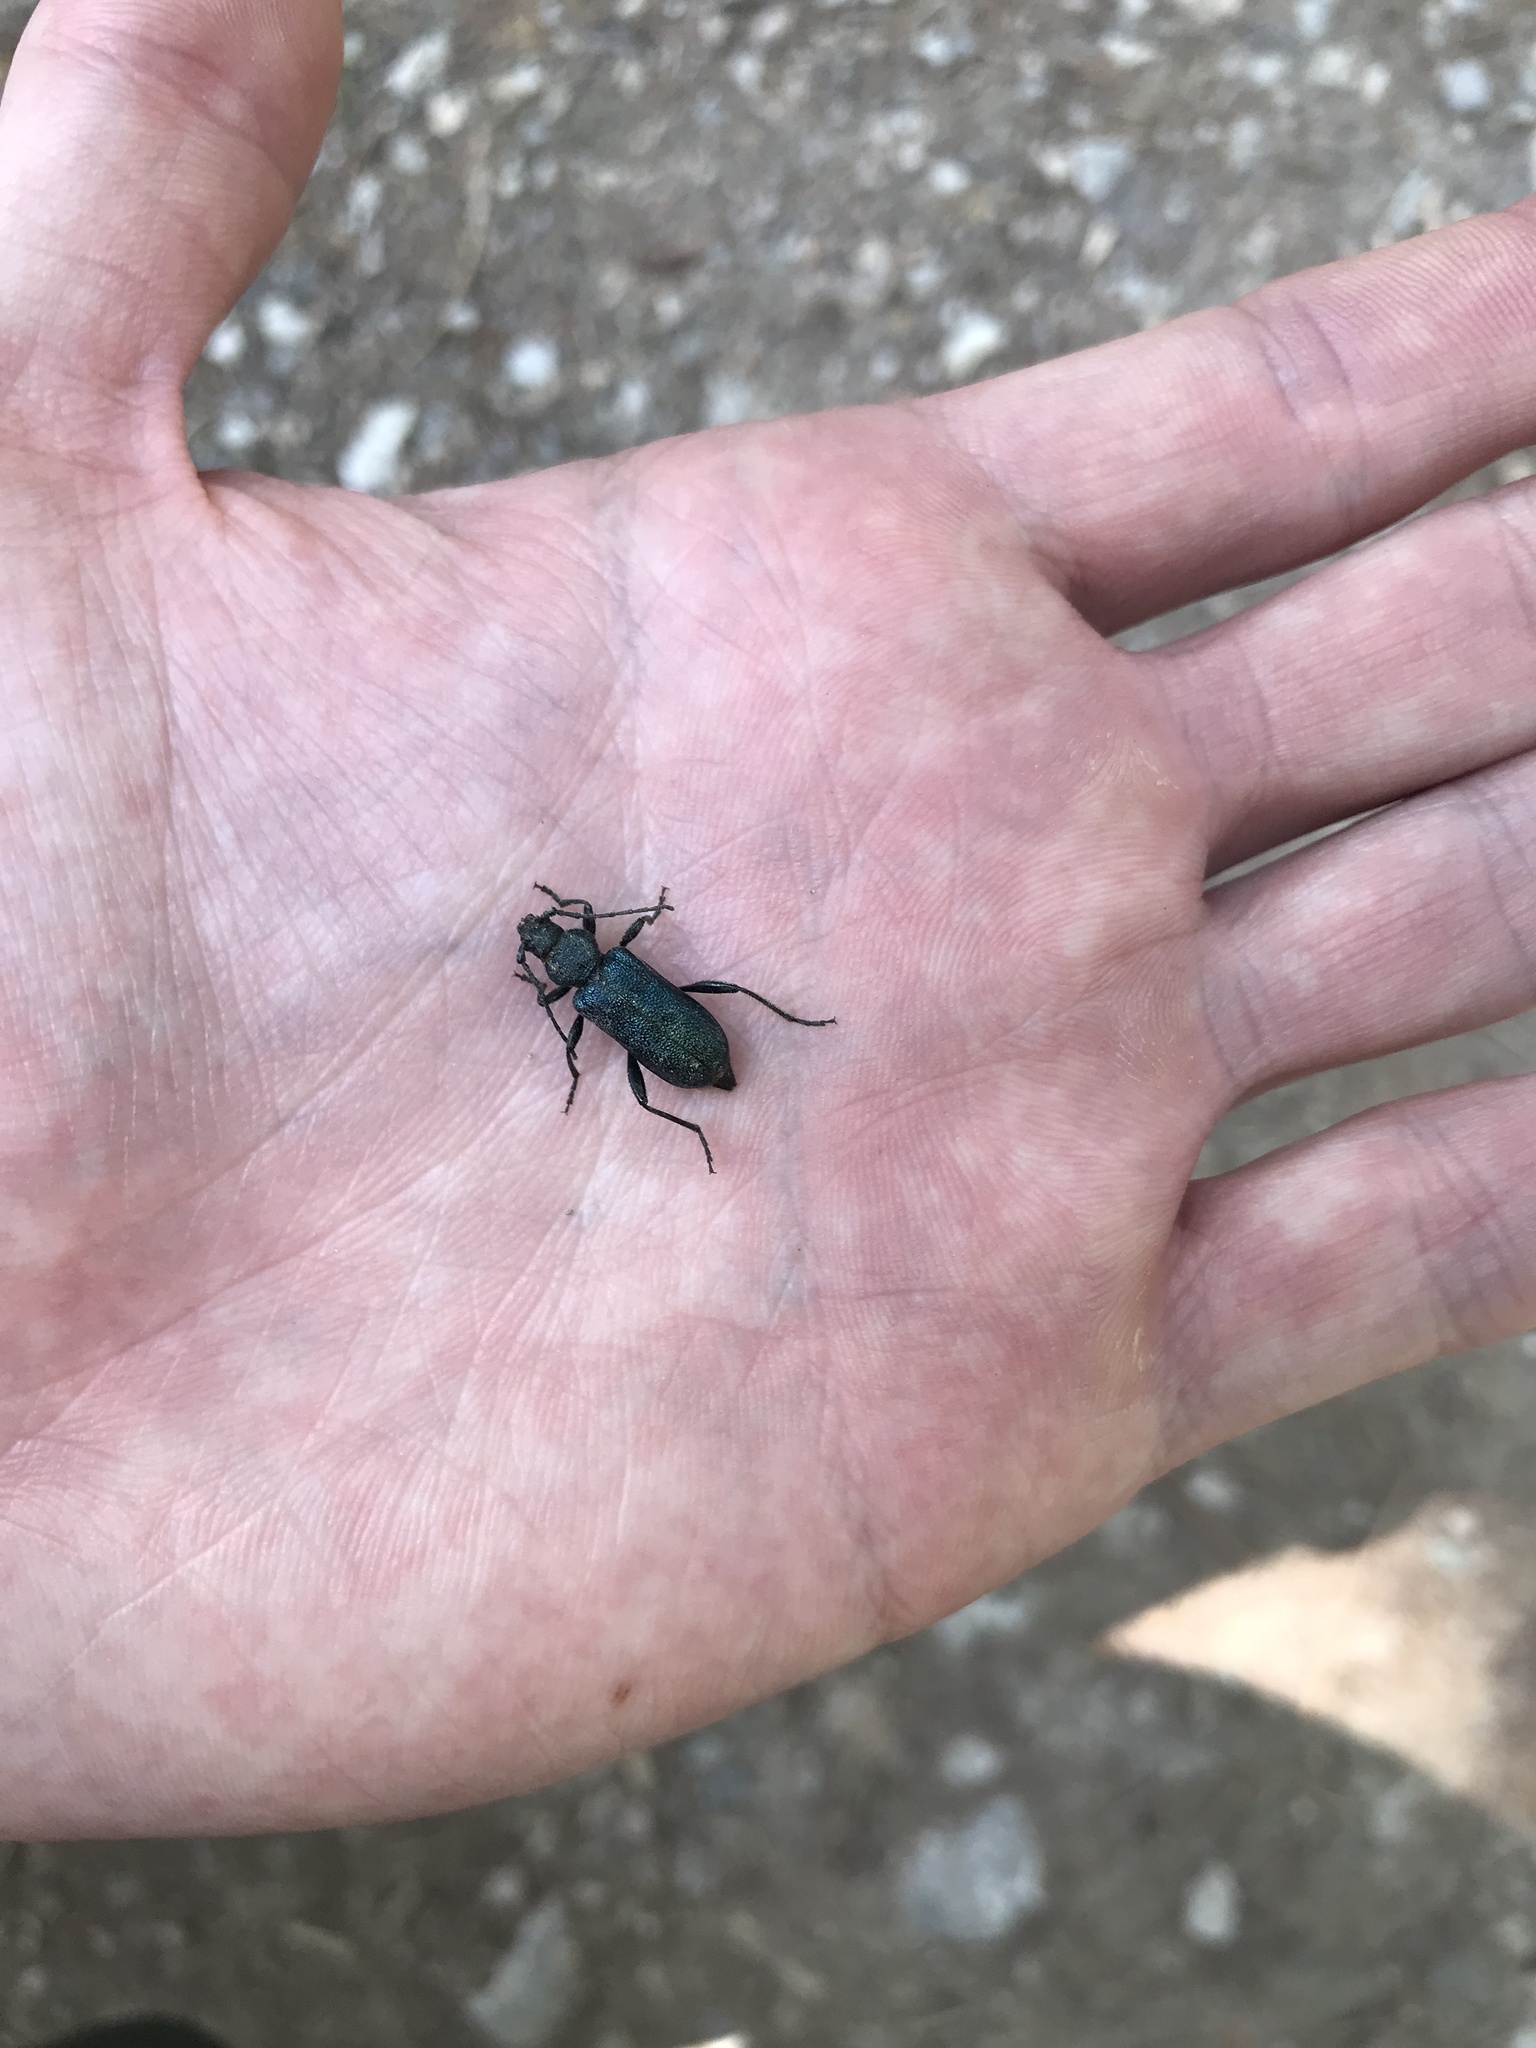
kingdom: Animalia
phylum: Arthropoda
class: Insecta
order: Coleoptera
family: Cerambycidae
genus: Callidium
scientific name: Callidium violaceum
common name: Violet tanbark beetle
